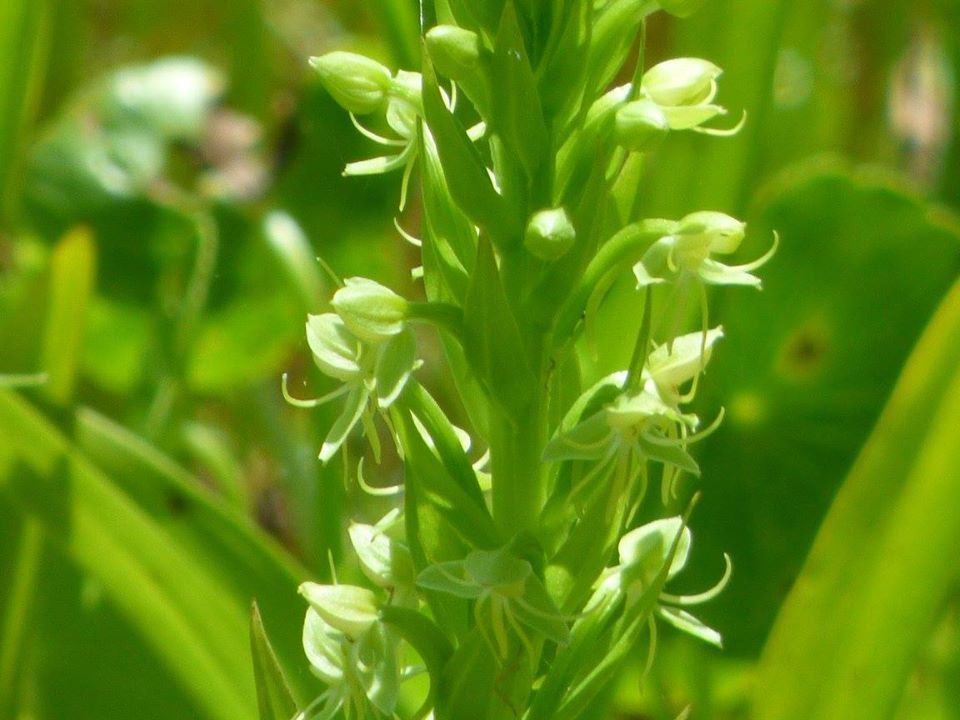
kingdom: Plantae
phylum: Tracheophyta
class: Liliopsida
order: Asparagales
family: Orchidaceae
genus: Habenaria
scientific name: Habenaria repens
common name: Water orchid
